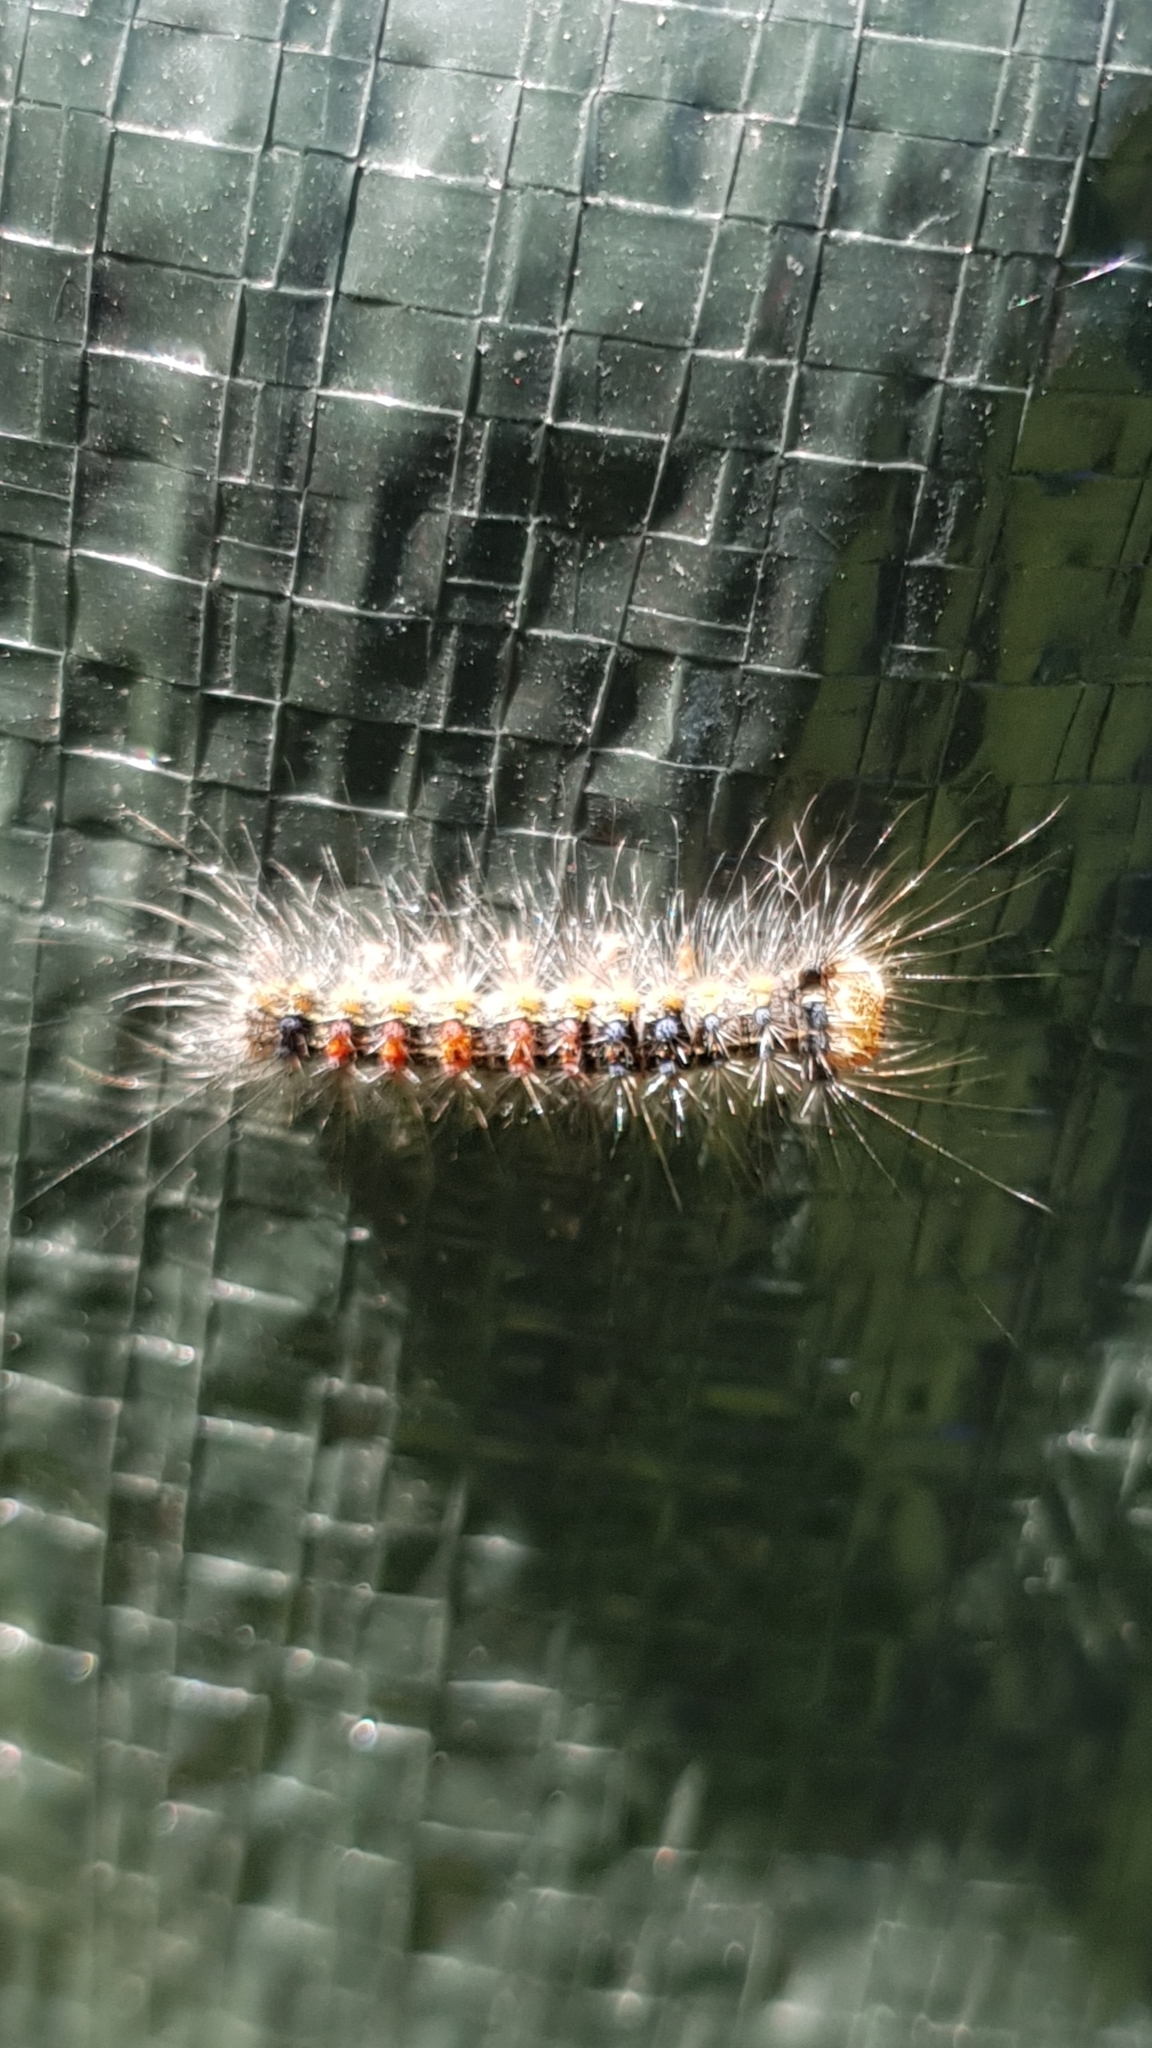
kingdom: Animalia
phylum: Arthropoda
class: Insecta
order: Lepidoptera
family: Erebidae
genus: Lymantria
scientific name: Lymantria dispar
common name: Gypsy moth
